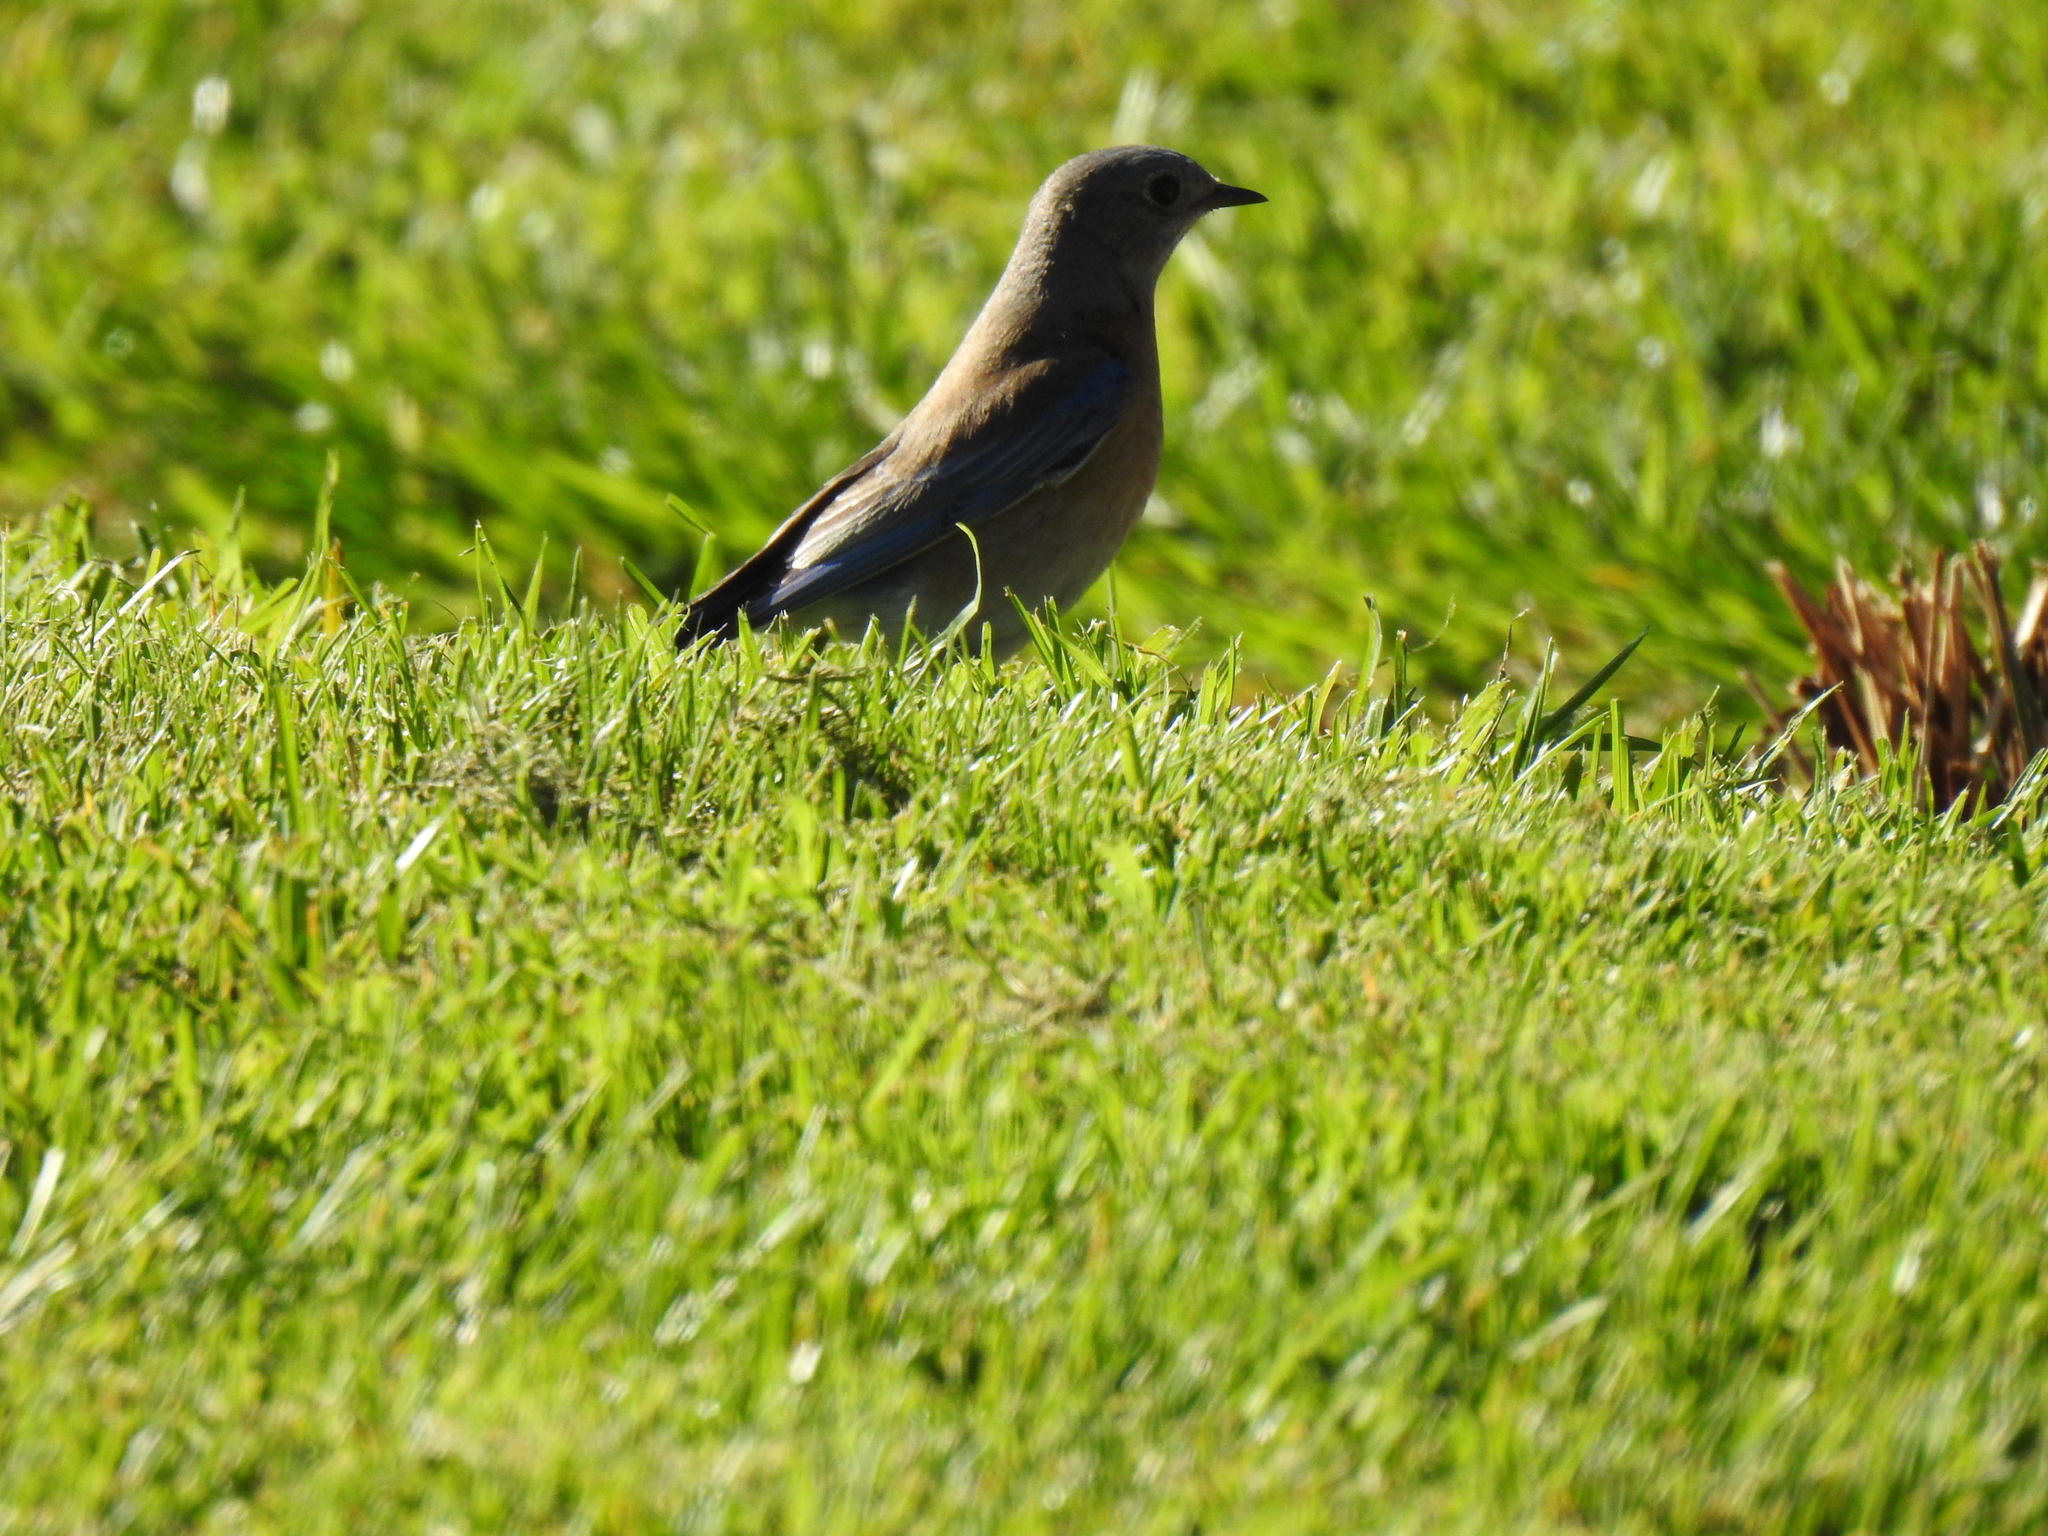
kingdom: Animalia
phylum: Chordata
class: Aves
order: Passeriformes
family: Turdidae
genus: Sialia
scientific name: Sialia mexicana
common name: Western bluebird
